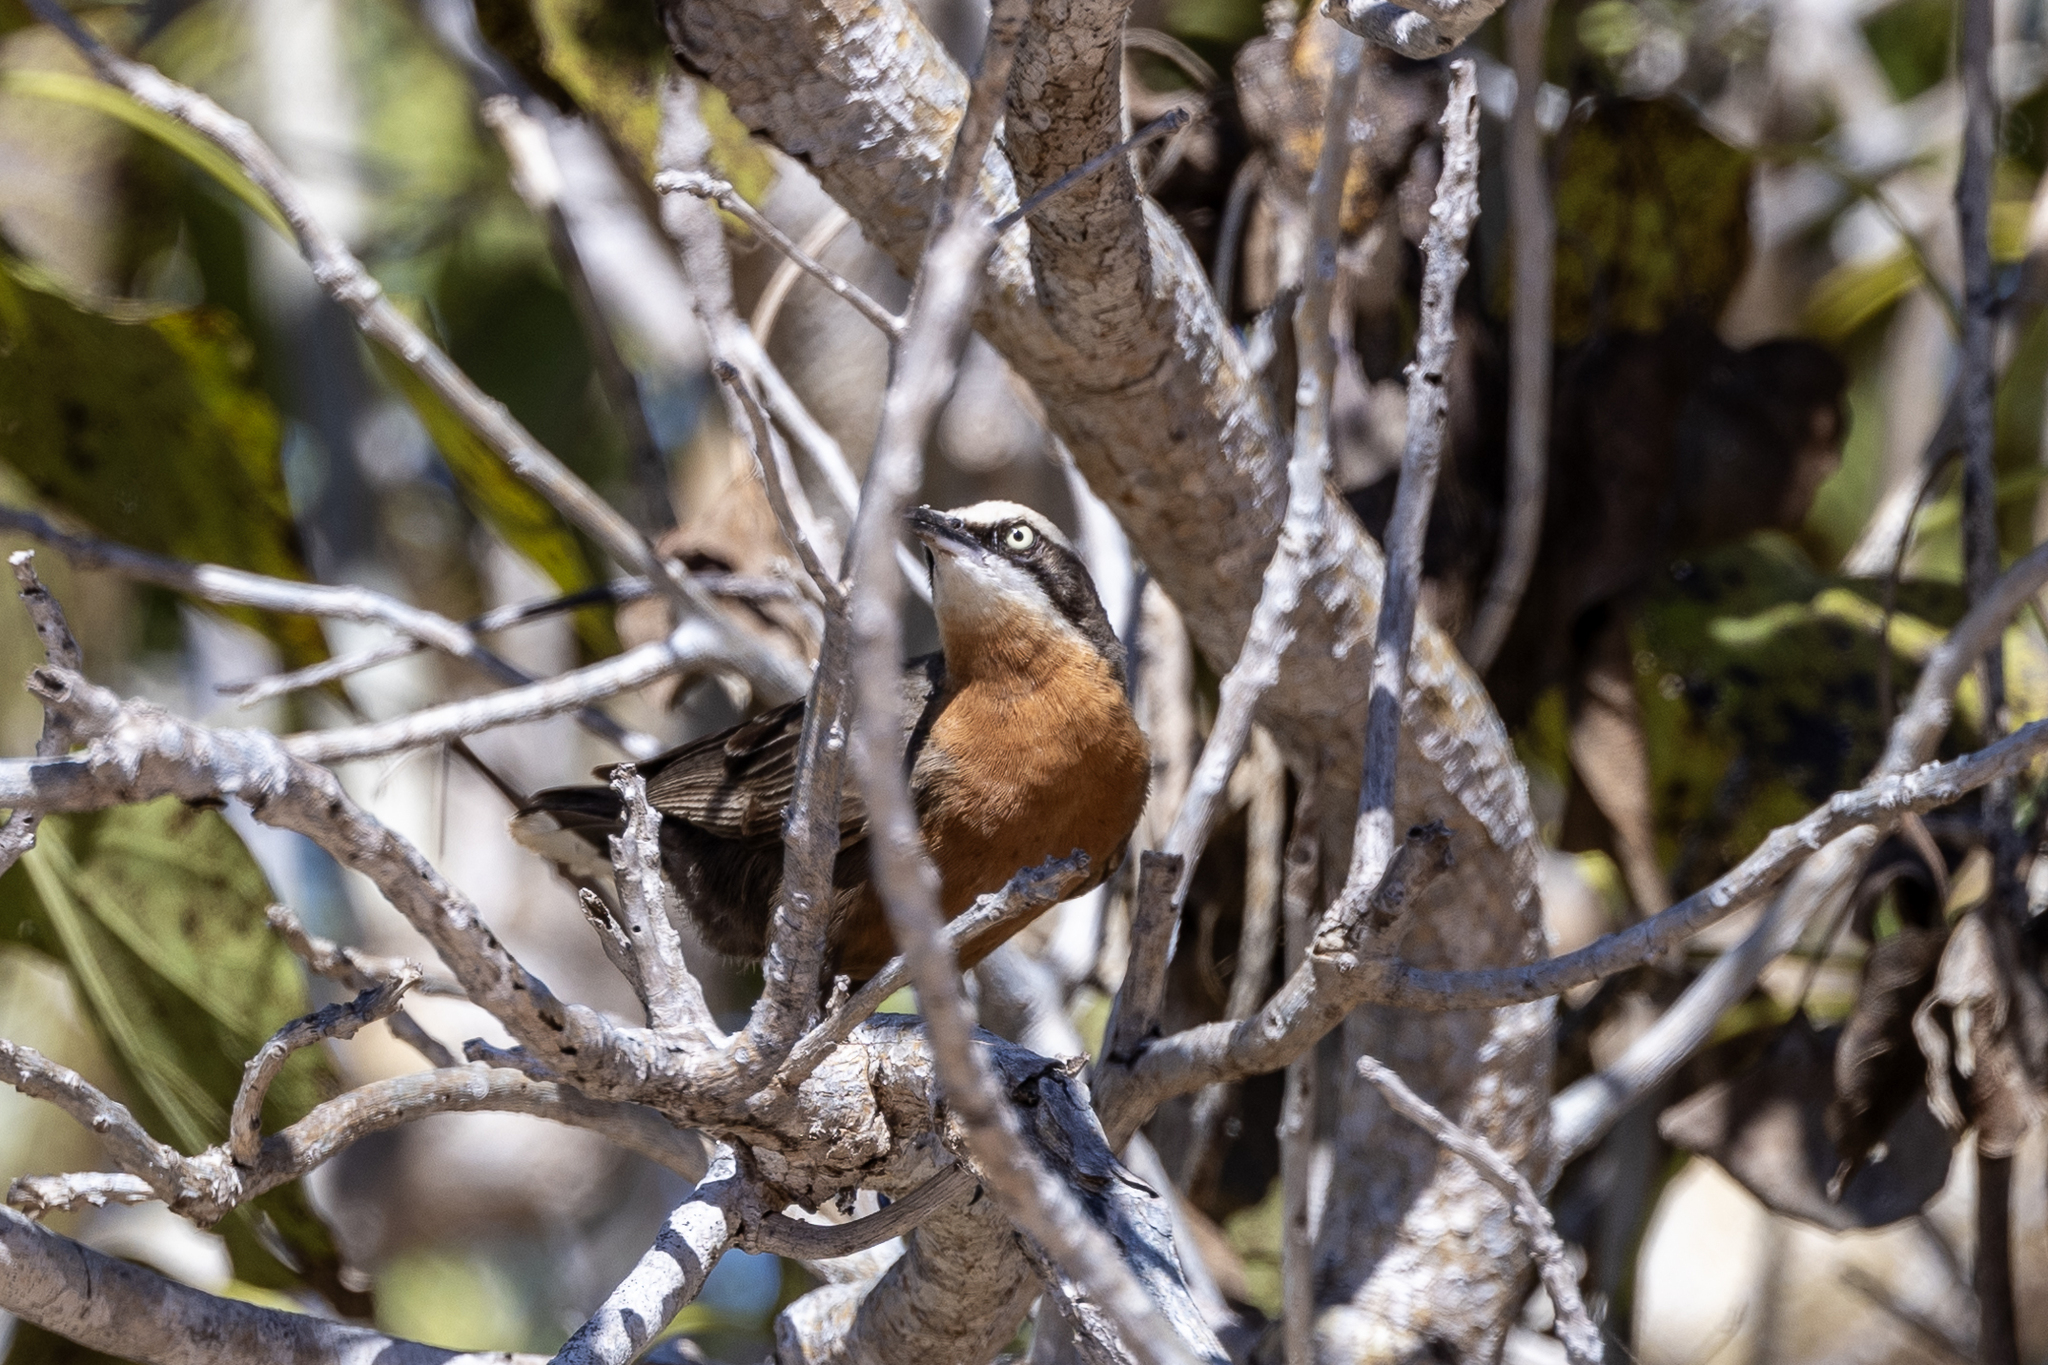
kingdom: Animalia
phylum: Chordata
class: Aves
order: Passeriformes
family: Pomatostomidae
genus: Pomatostomus
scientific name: Pomatostomus temporalis
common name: Grey-crowned babbler
